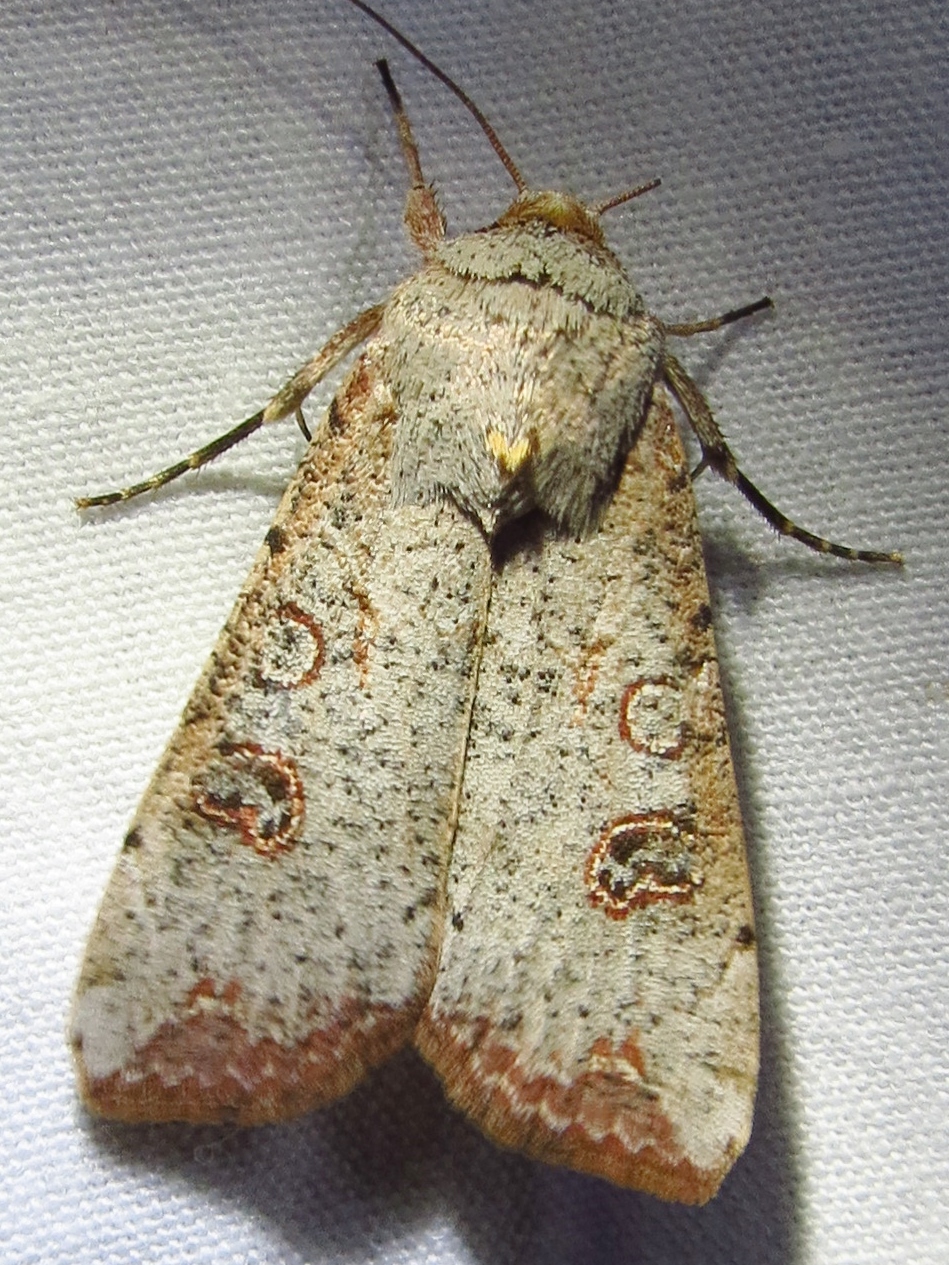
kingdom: Animalia
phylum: Arthropoda
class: Insecta
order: Lepidoptera
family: Noctuidae
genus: Anicla
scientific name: Anicla infecta
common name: Green cutworm
